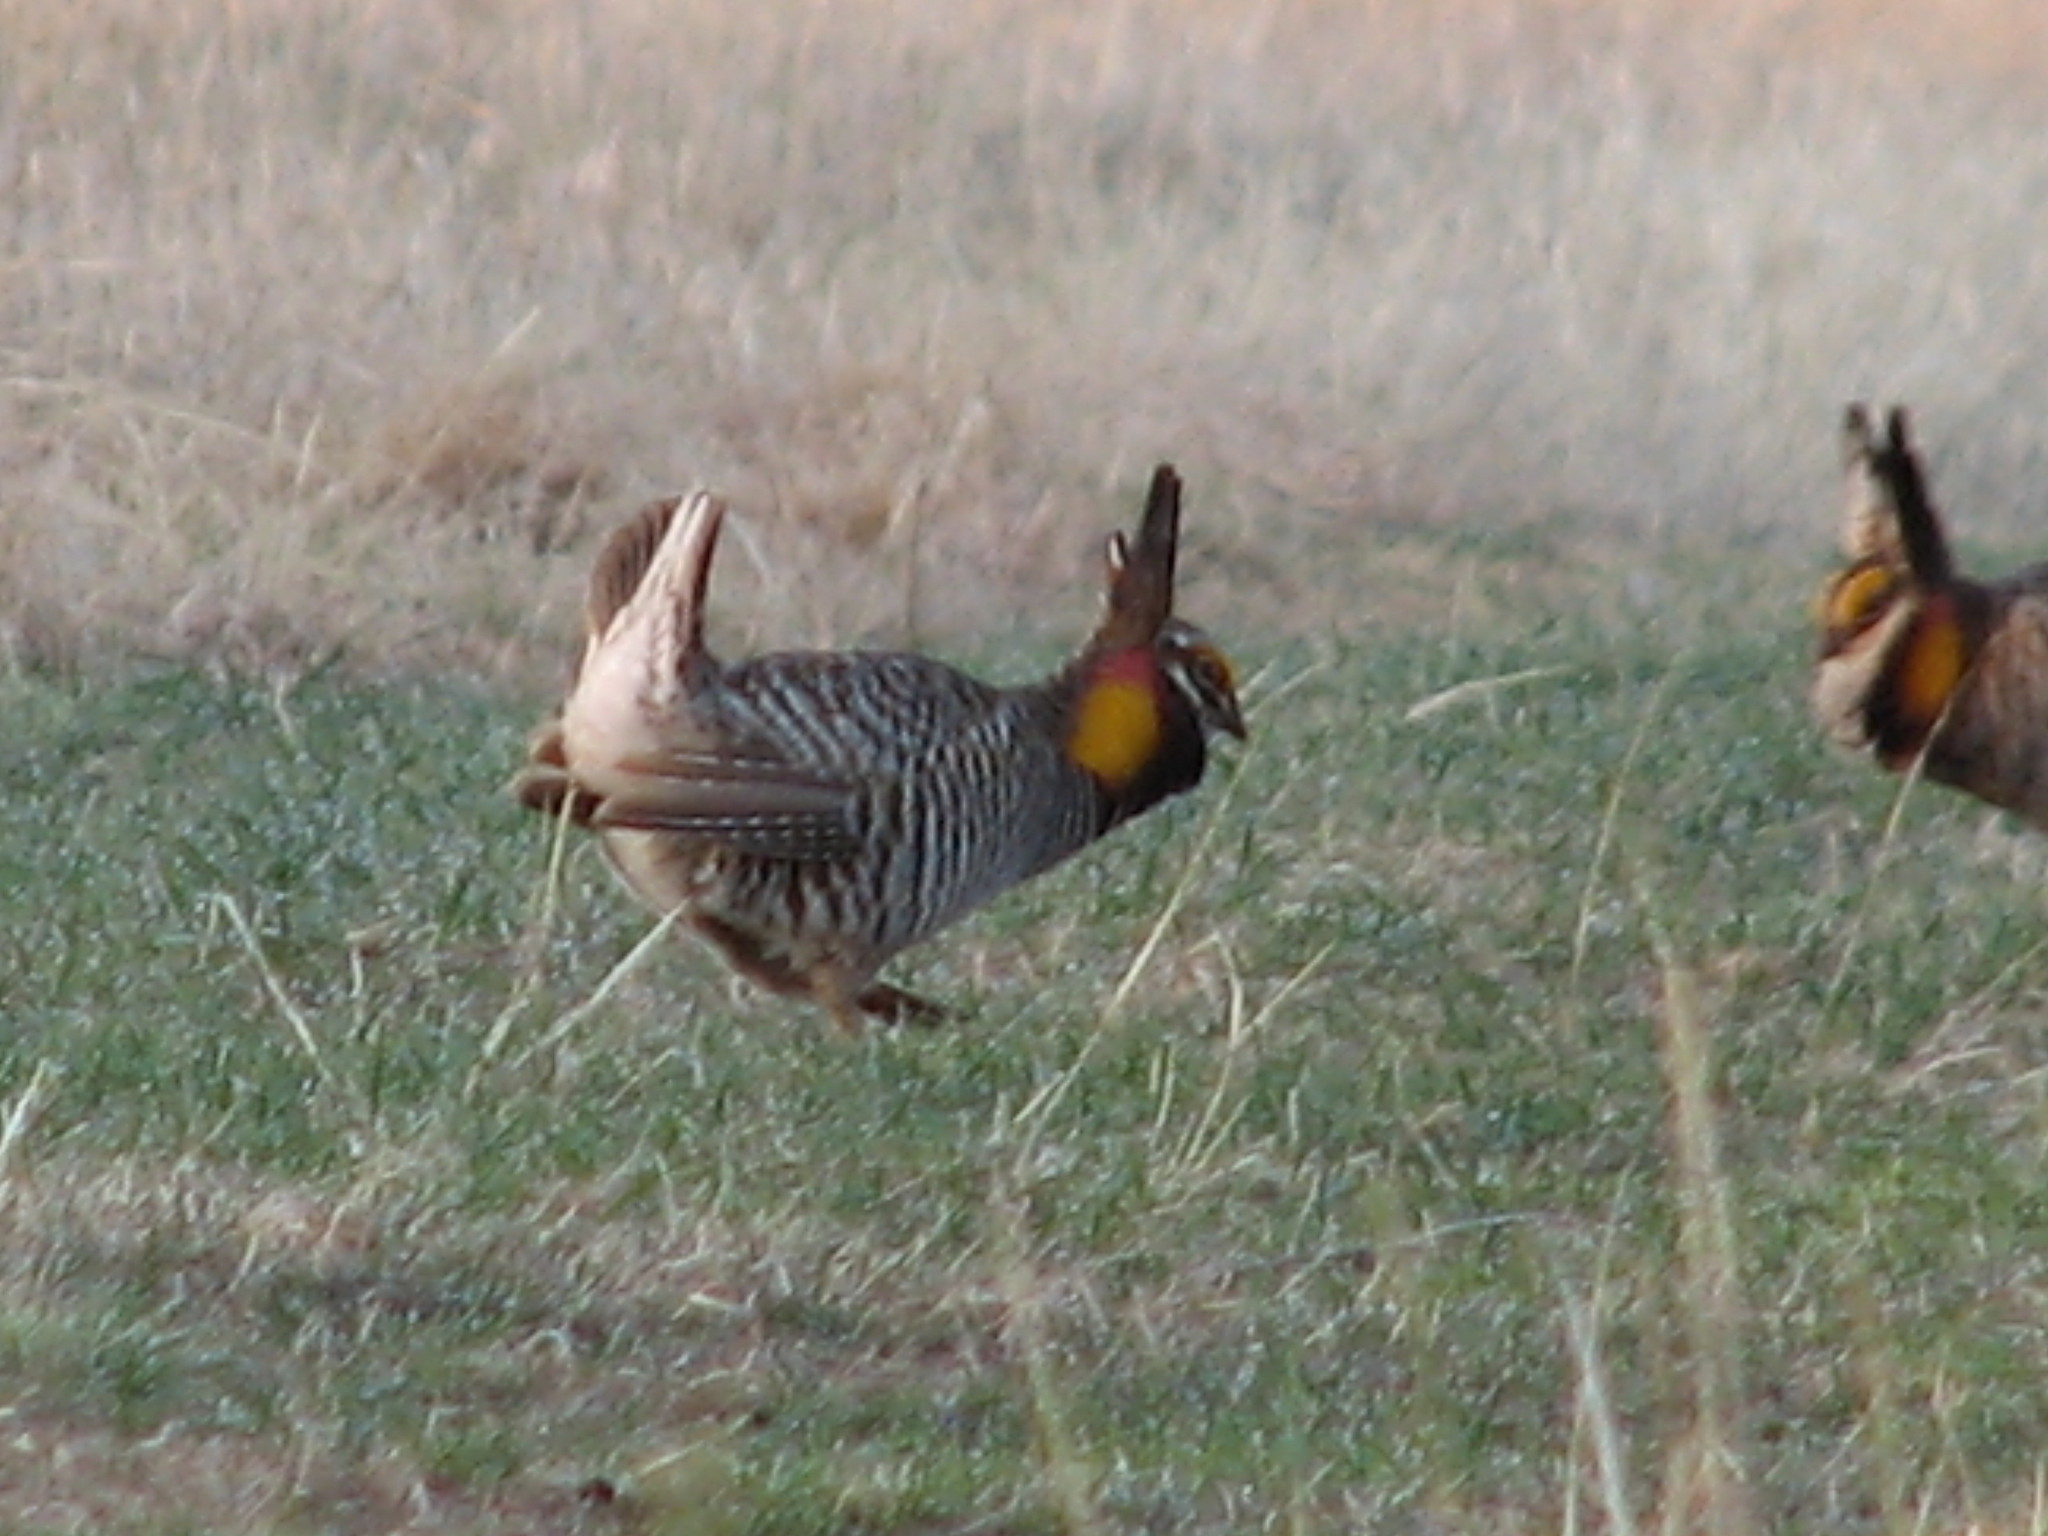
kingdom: Animalia
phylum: Chordata
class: Aves
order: Galliformes
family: Phasianidae
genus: Tympanuchus
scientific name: Tympanuchus cupido
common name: Greater prairie chicken
